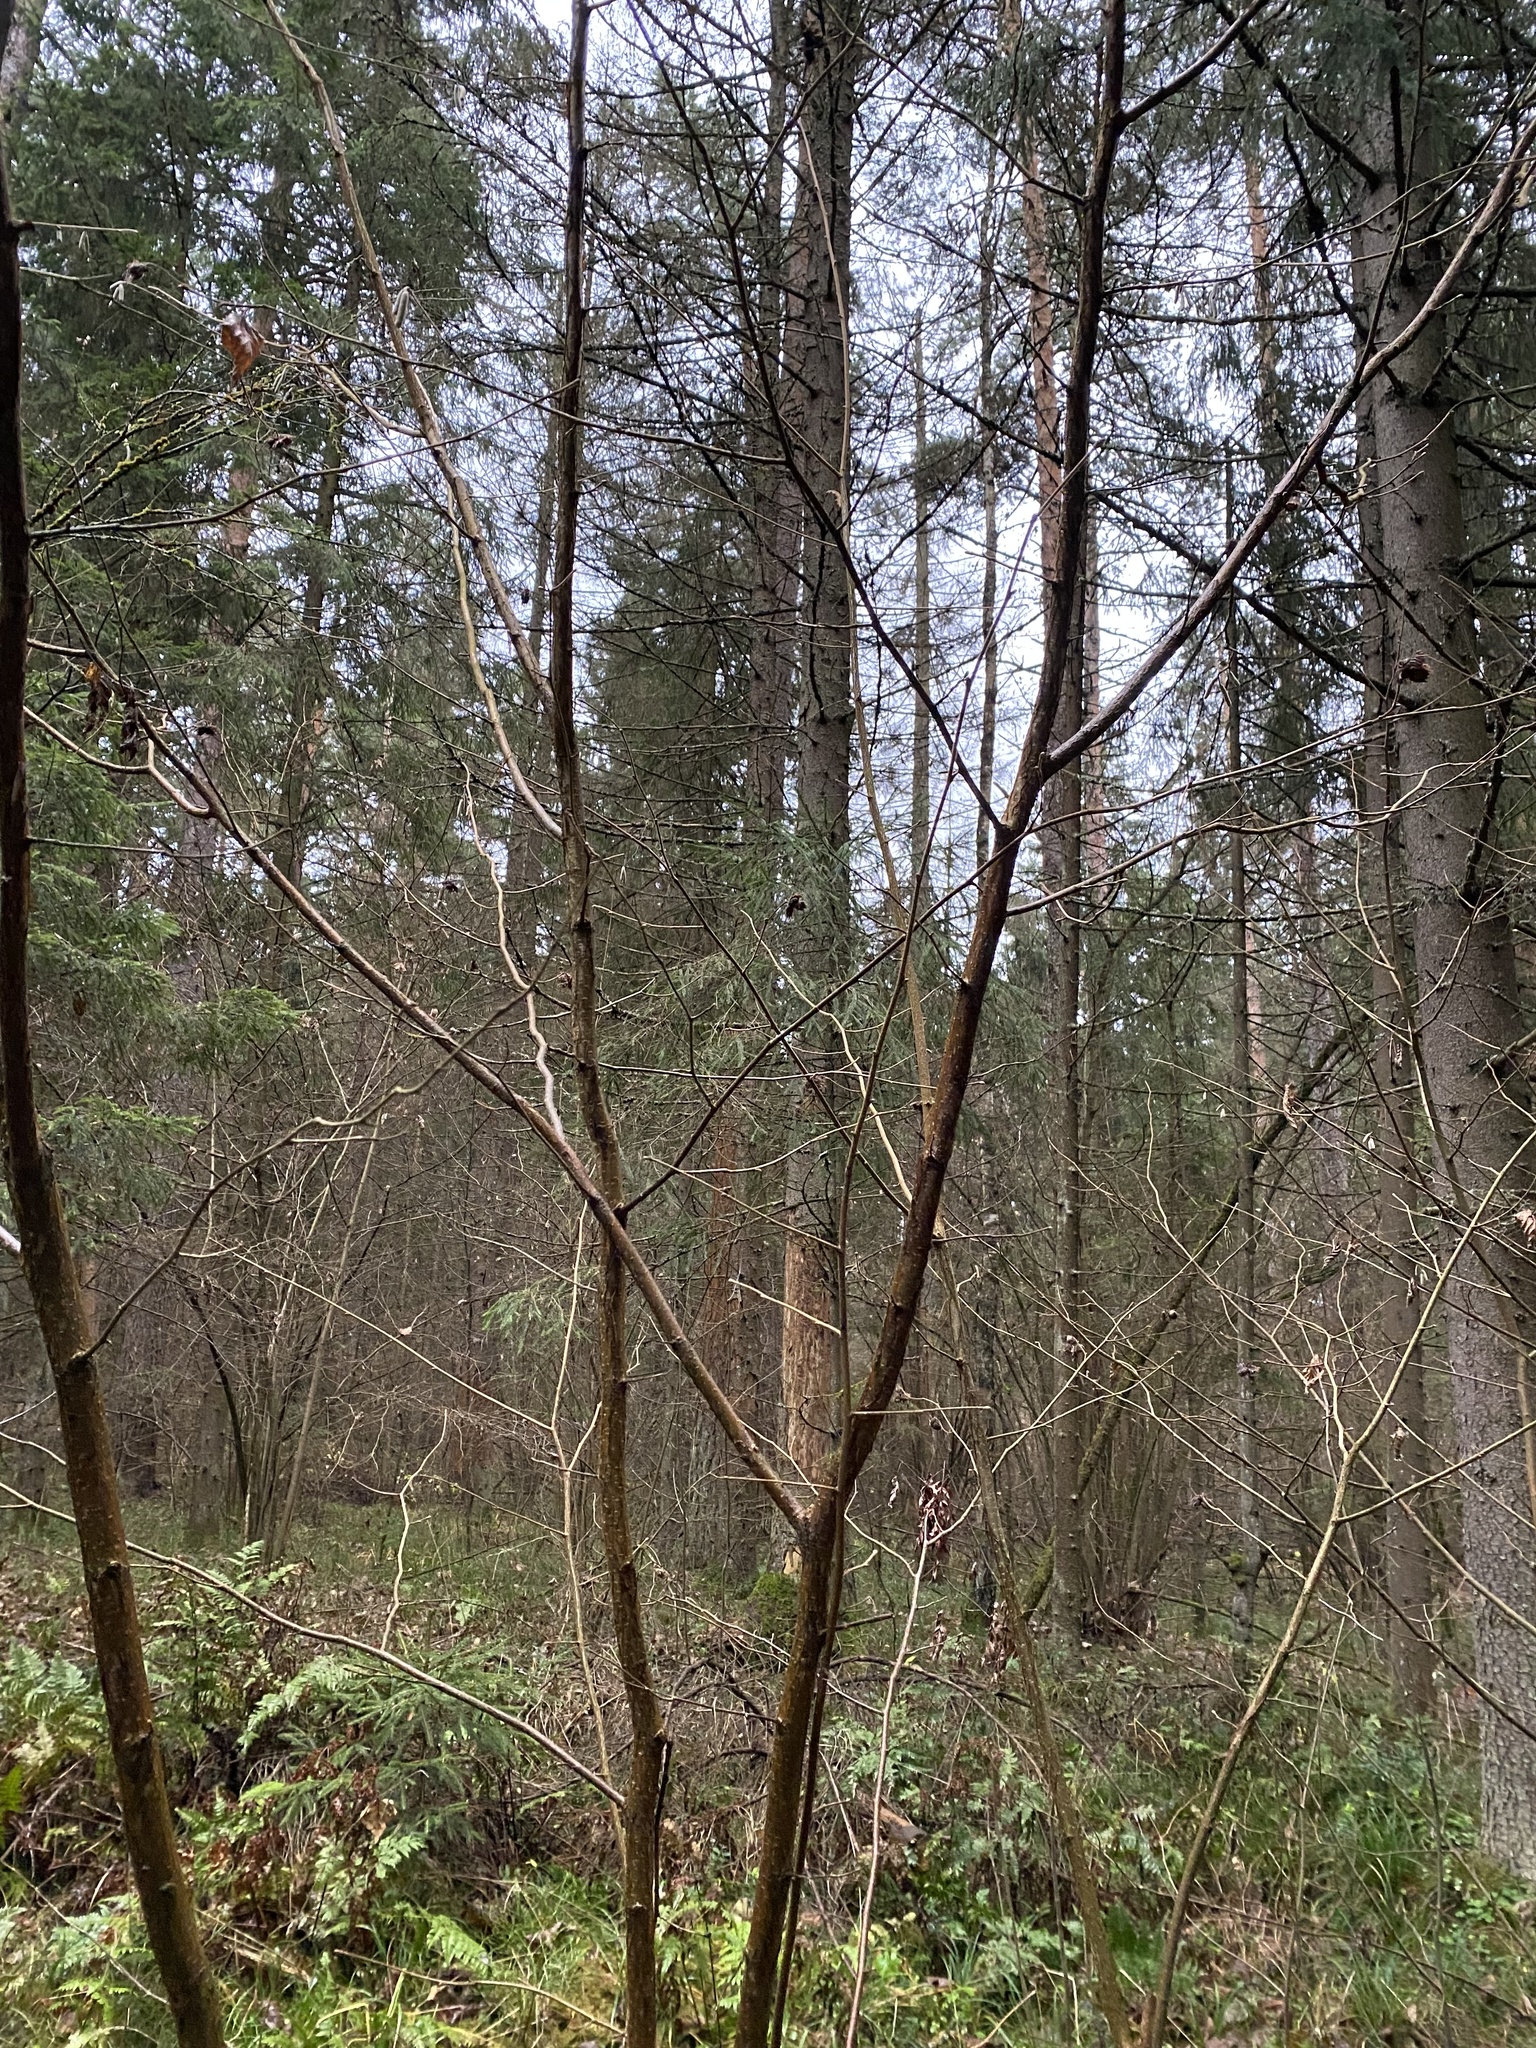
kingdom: Plantae
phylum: Tracheophyta
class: Magnoliopsida
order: Fagales
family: Betulaceae
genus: Corylus
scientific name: Corylus avellana
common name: European hazel
